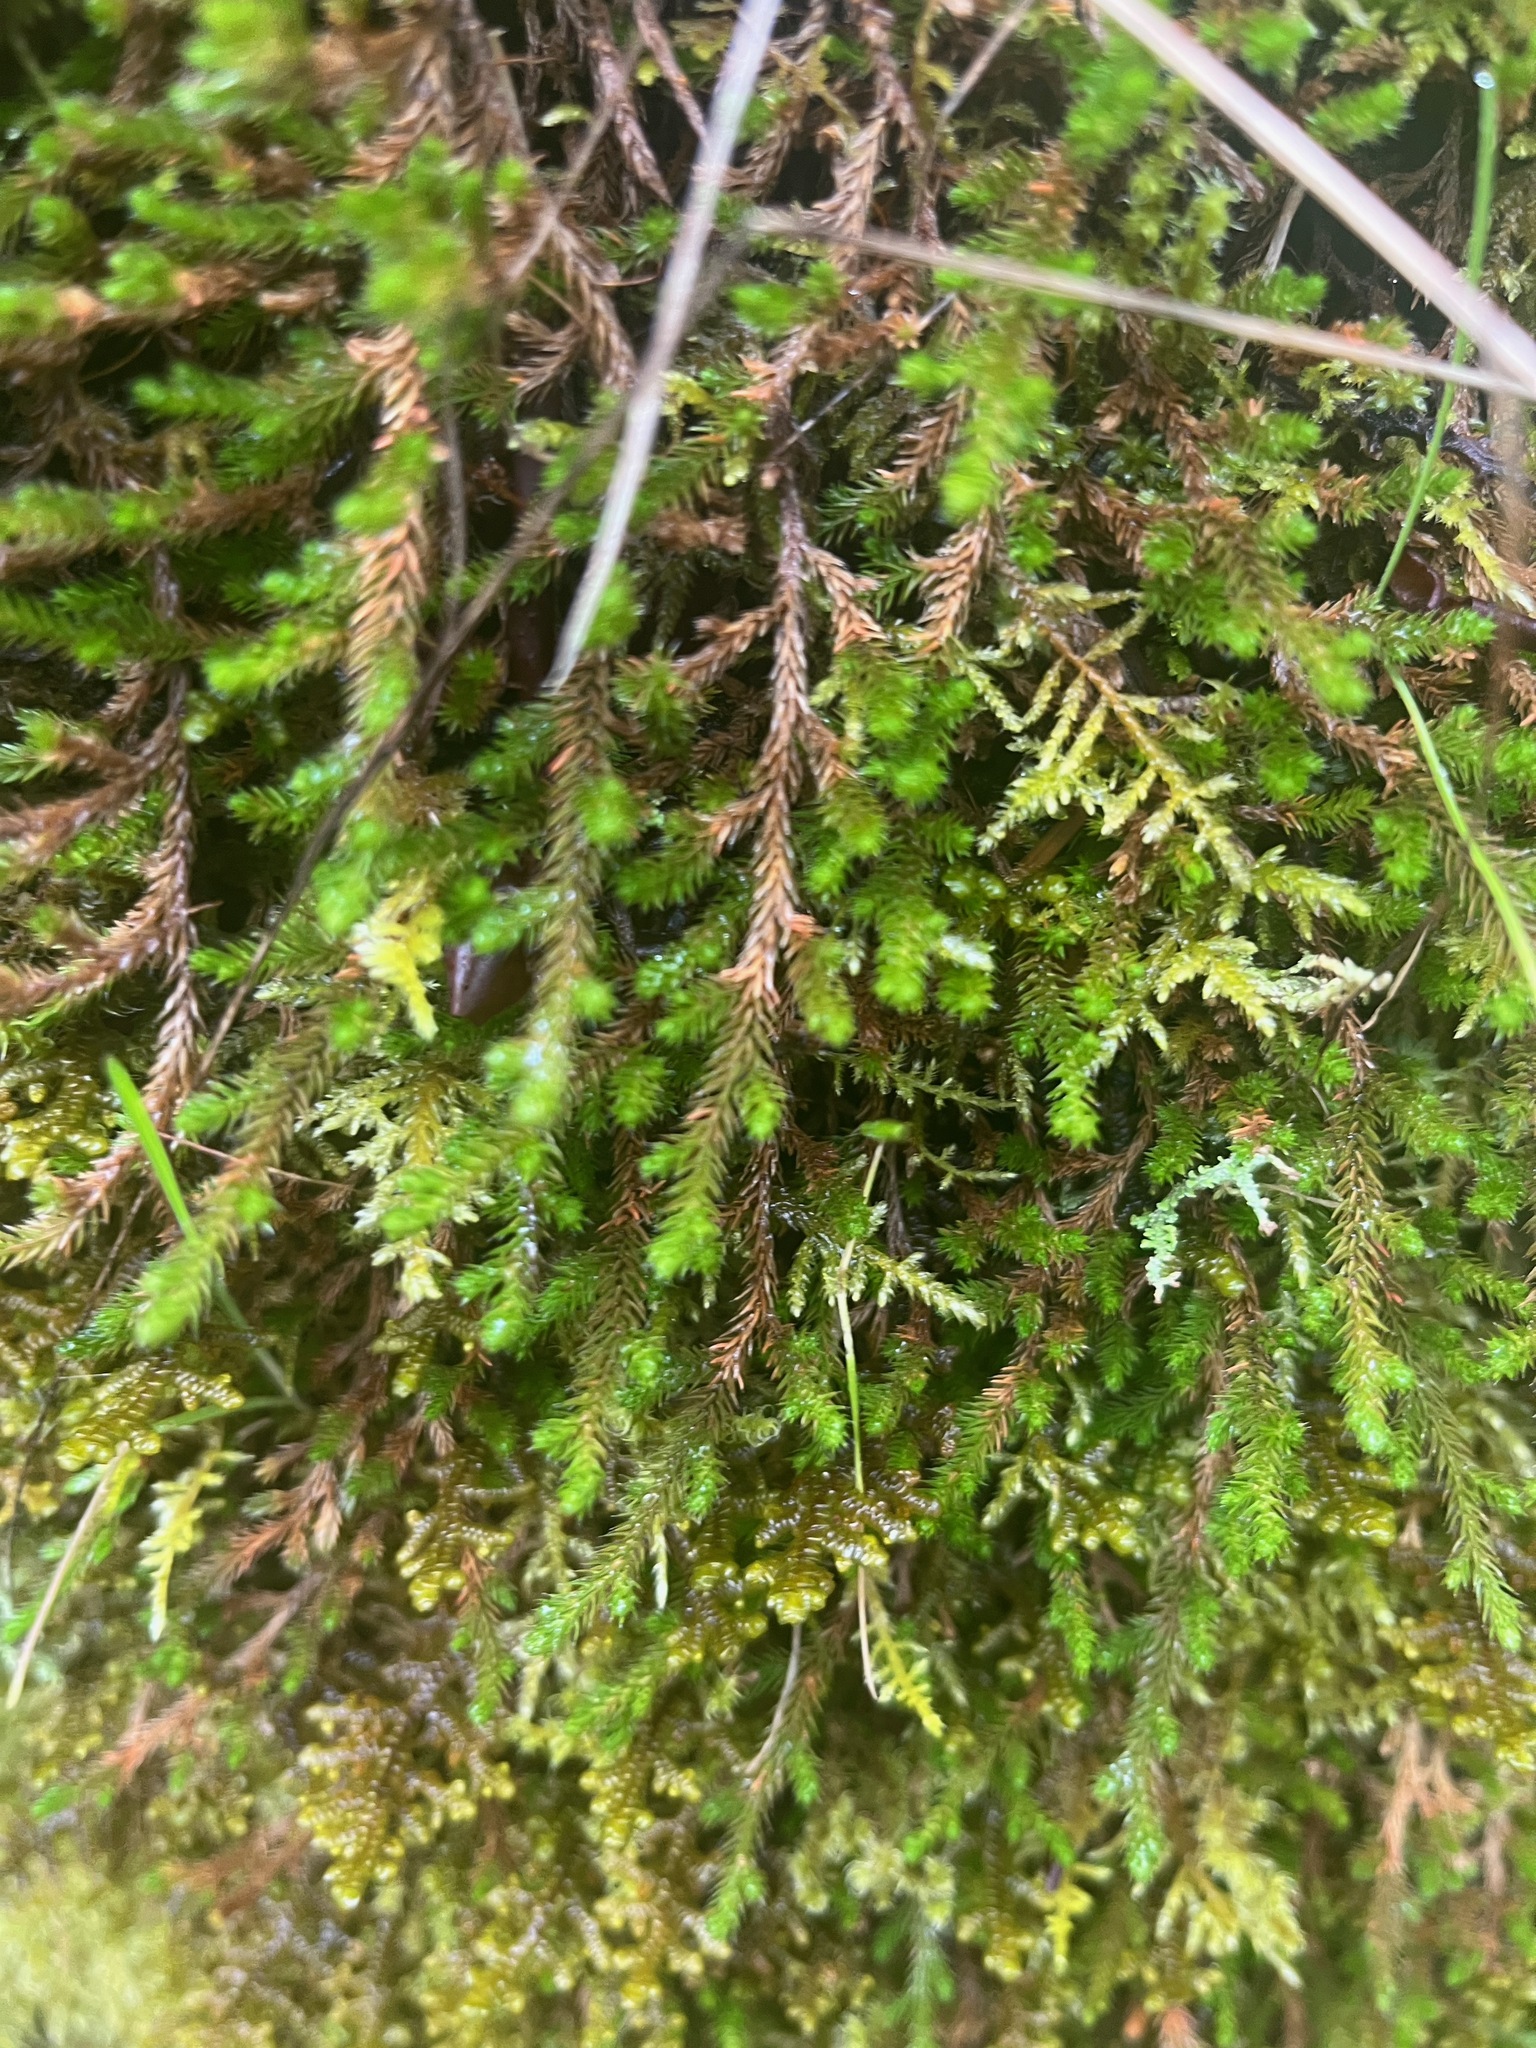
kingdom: Plantae
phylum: Tracheophyta
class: Lycopodiopsida
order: Selaginellales
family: Selaginellaceae
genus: Selaginella
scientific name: Selaginella wallacei
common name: Wallace's selaginella
